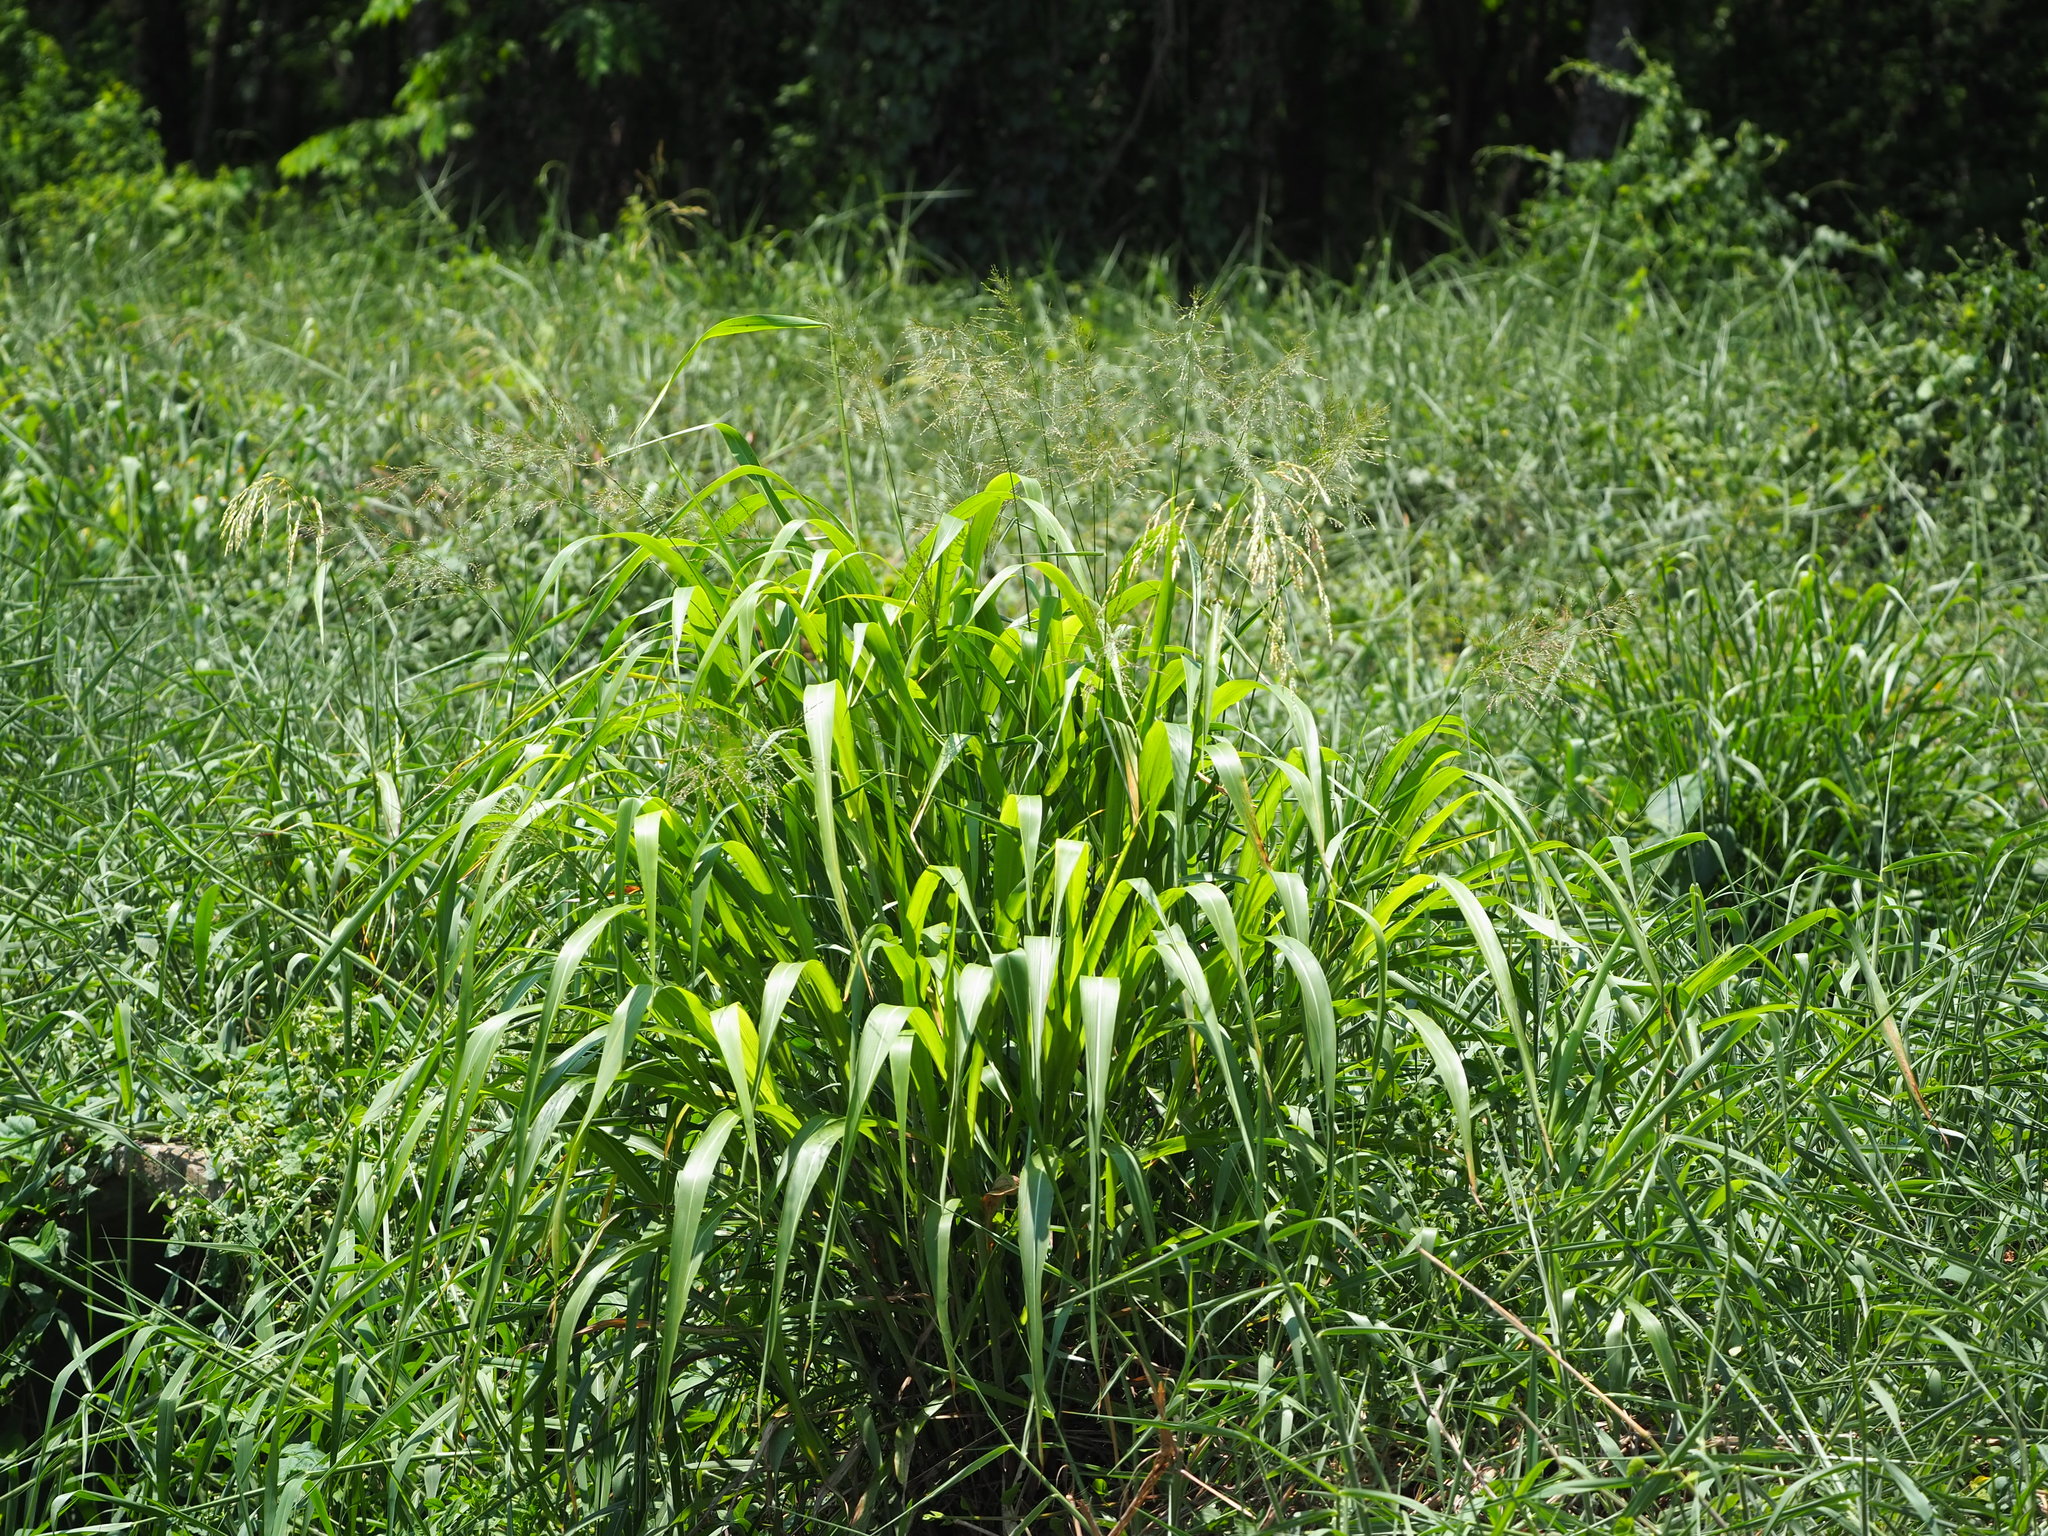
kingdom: Plantae
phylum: Tracheophyta
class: Liliopsida
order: Poales
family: Poaceae
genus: Sorghum
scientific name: Sorghum arundinaceum
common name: Sorghum
